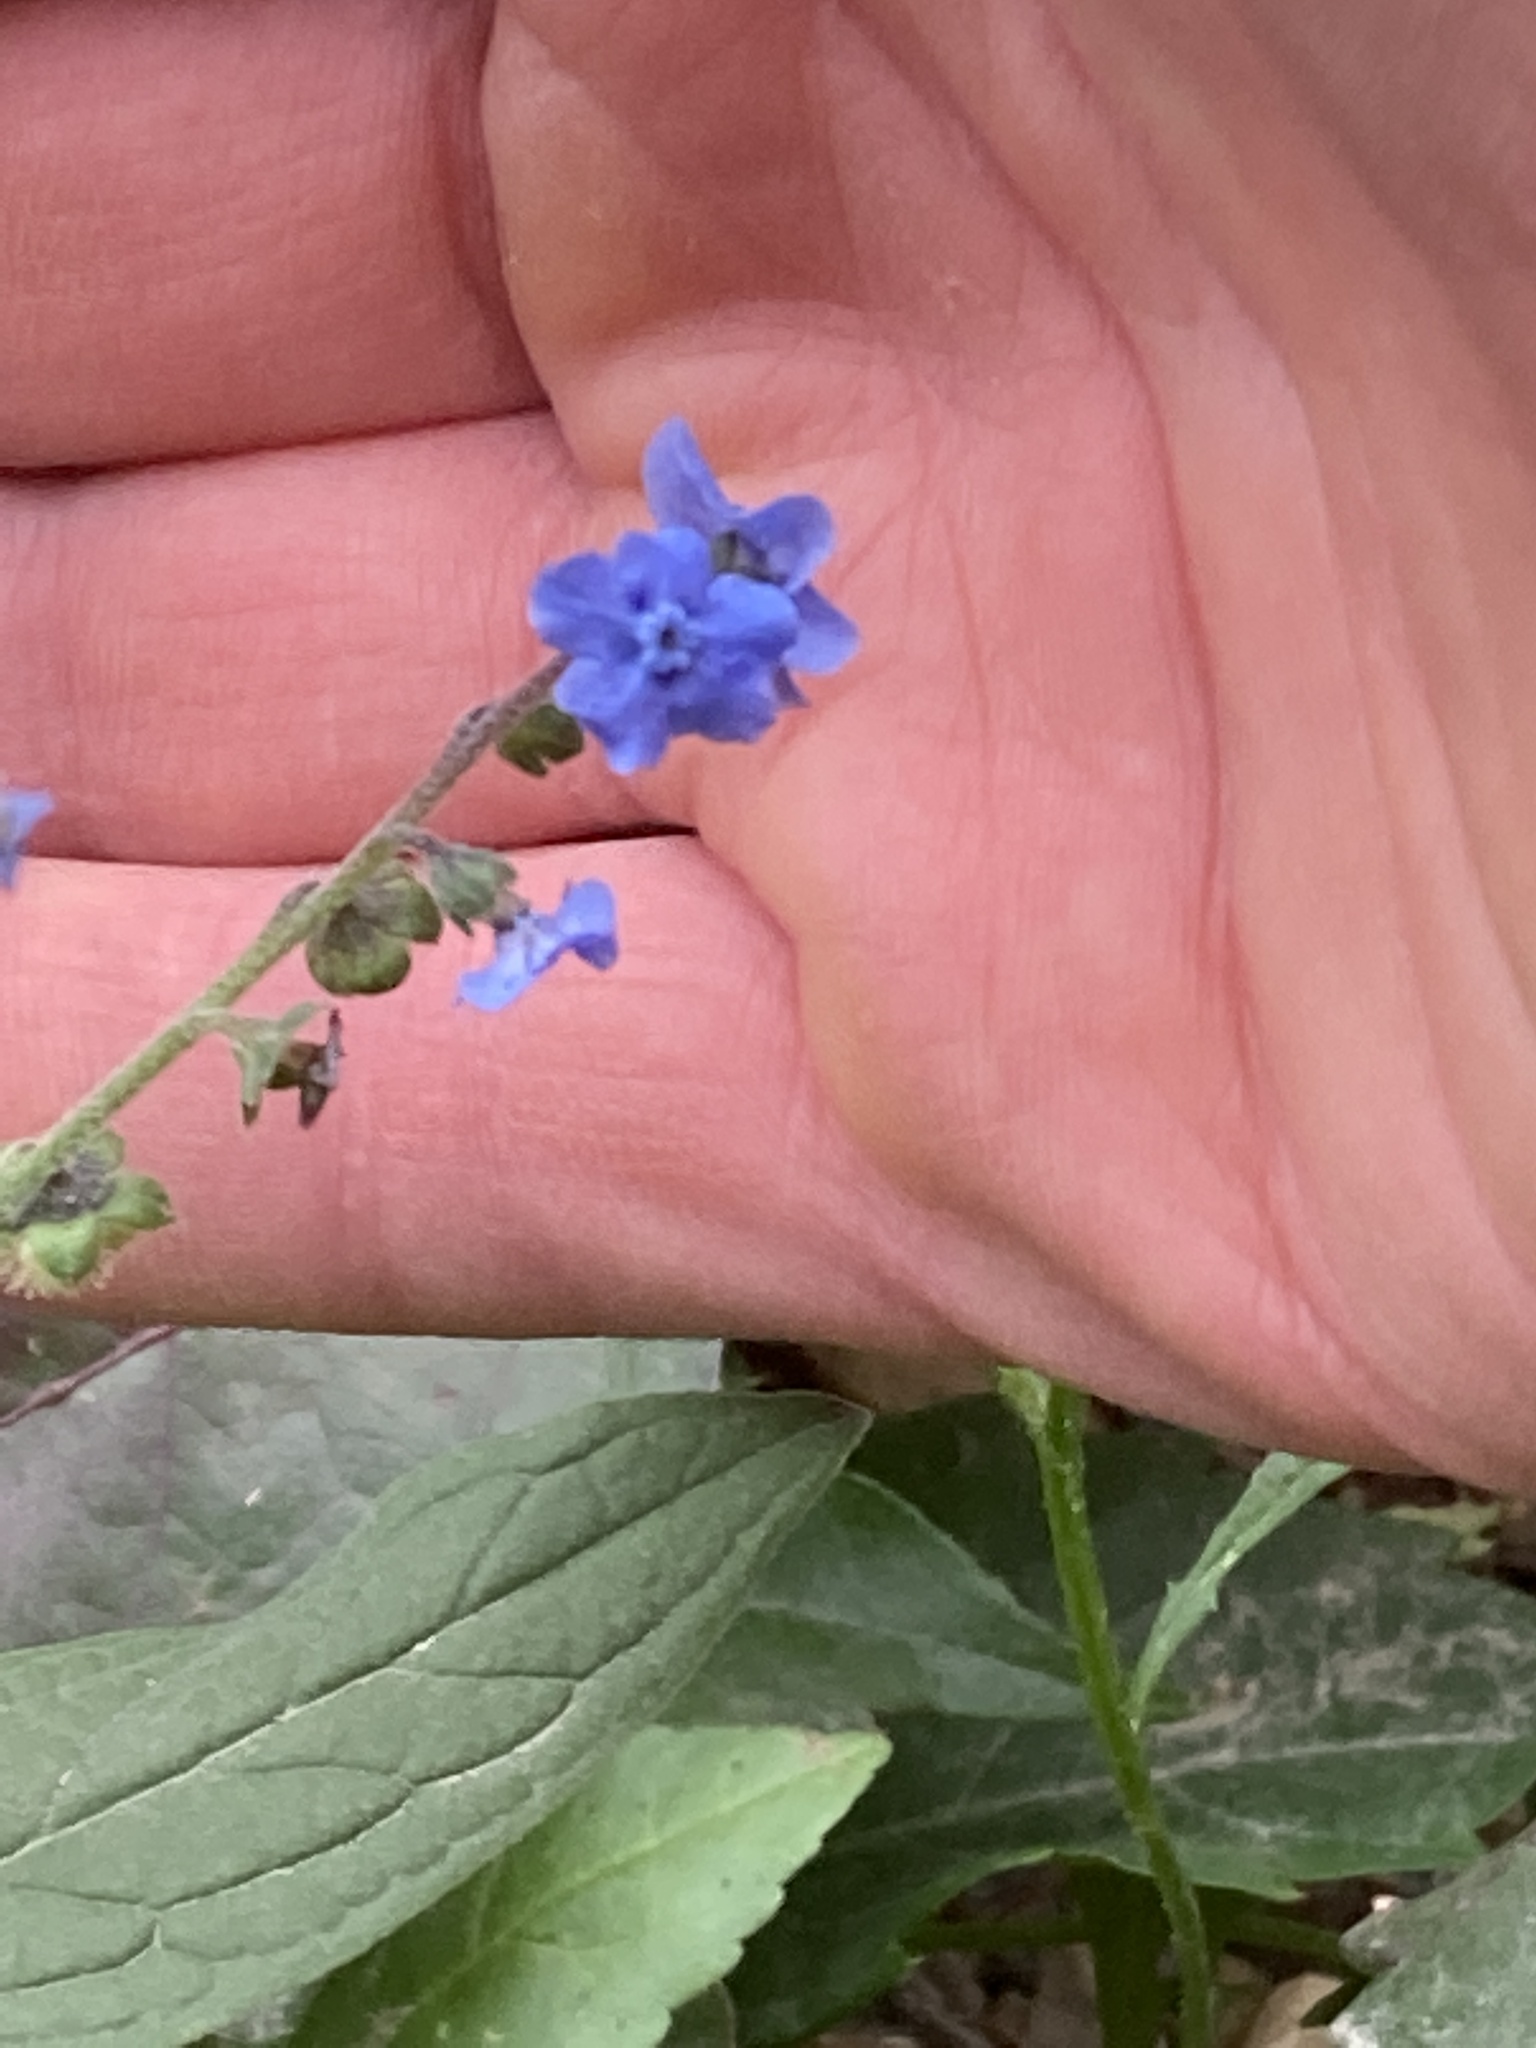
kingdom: Plantae
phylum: Tracheophyta
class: Magnoliopsida
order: Boraginales
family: Boraginaceae
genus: Cynoglossum
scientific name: Cynoglossum amabile
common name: Chinese hound's tongue
